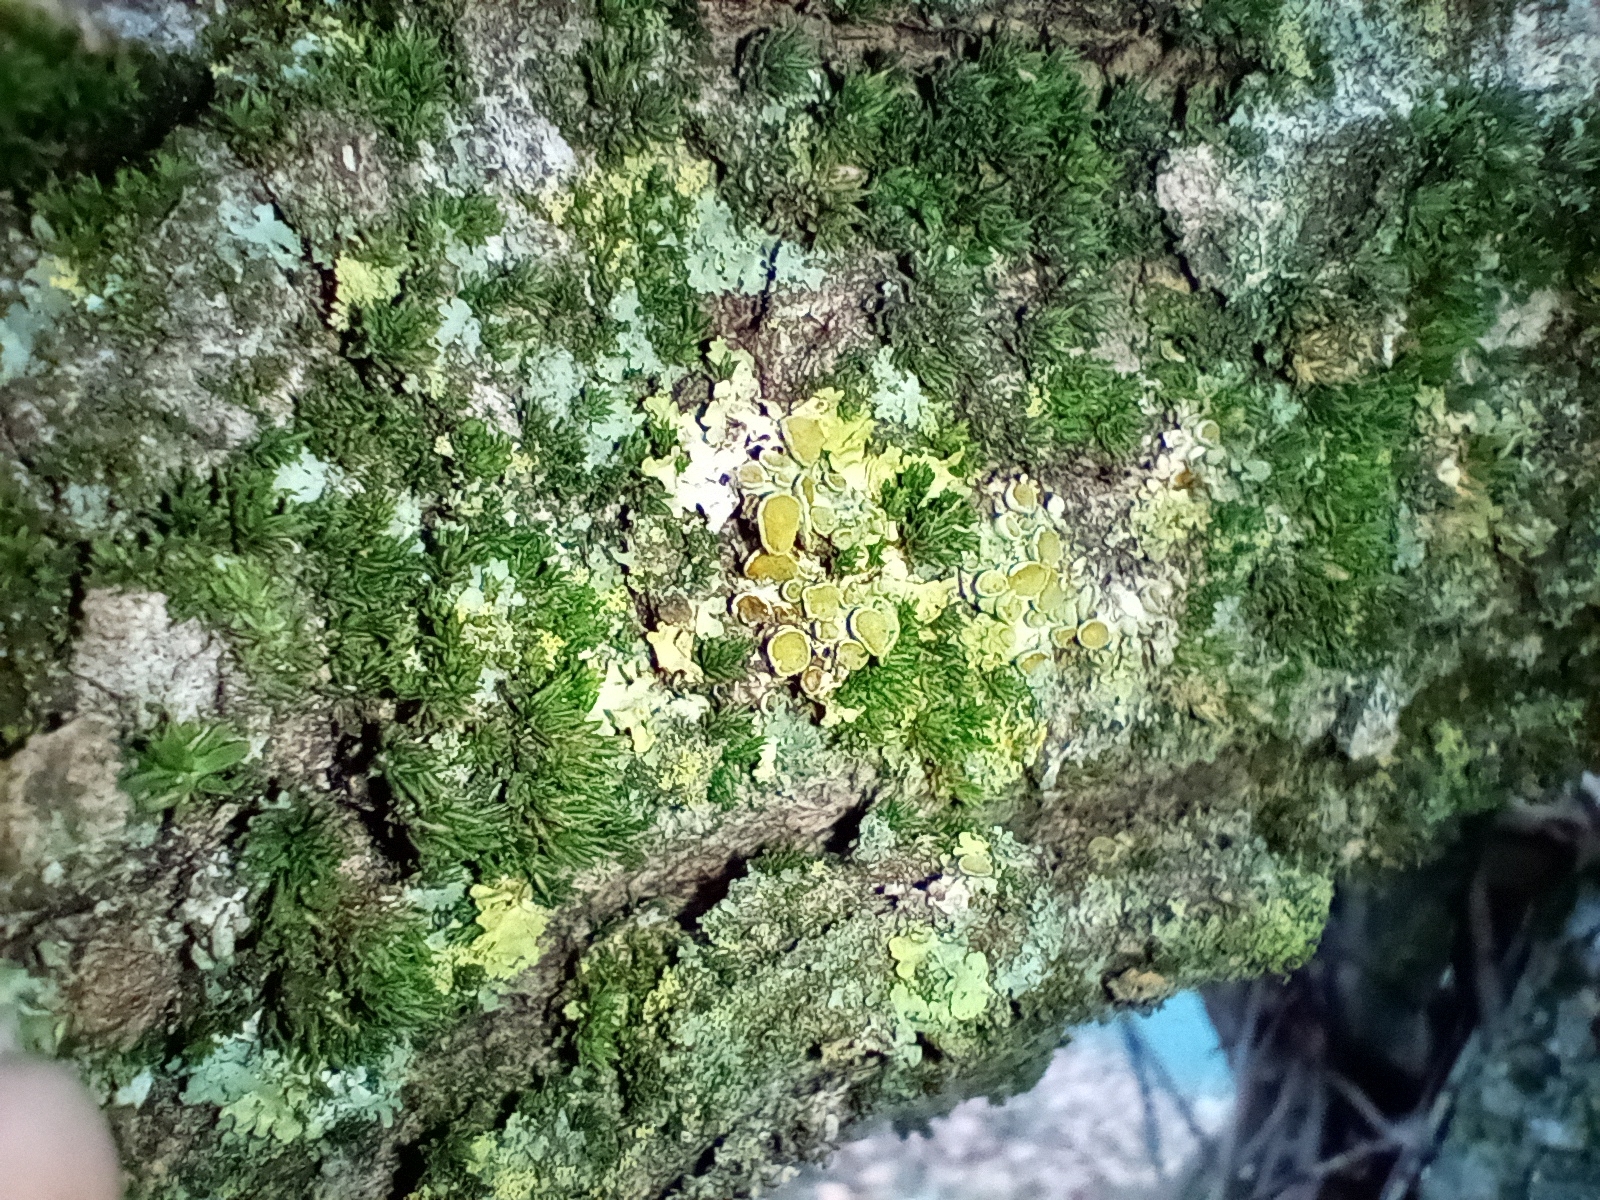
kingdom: Fungi
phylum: Ascomycota
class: Lecanoromycetes
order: Teloschistales
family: Teloschistaceae
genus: Xanthoria
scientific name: Xanthoria parietina
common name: Common orange lichen
